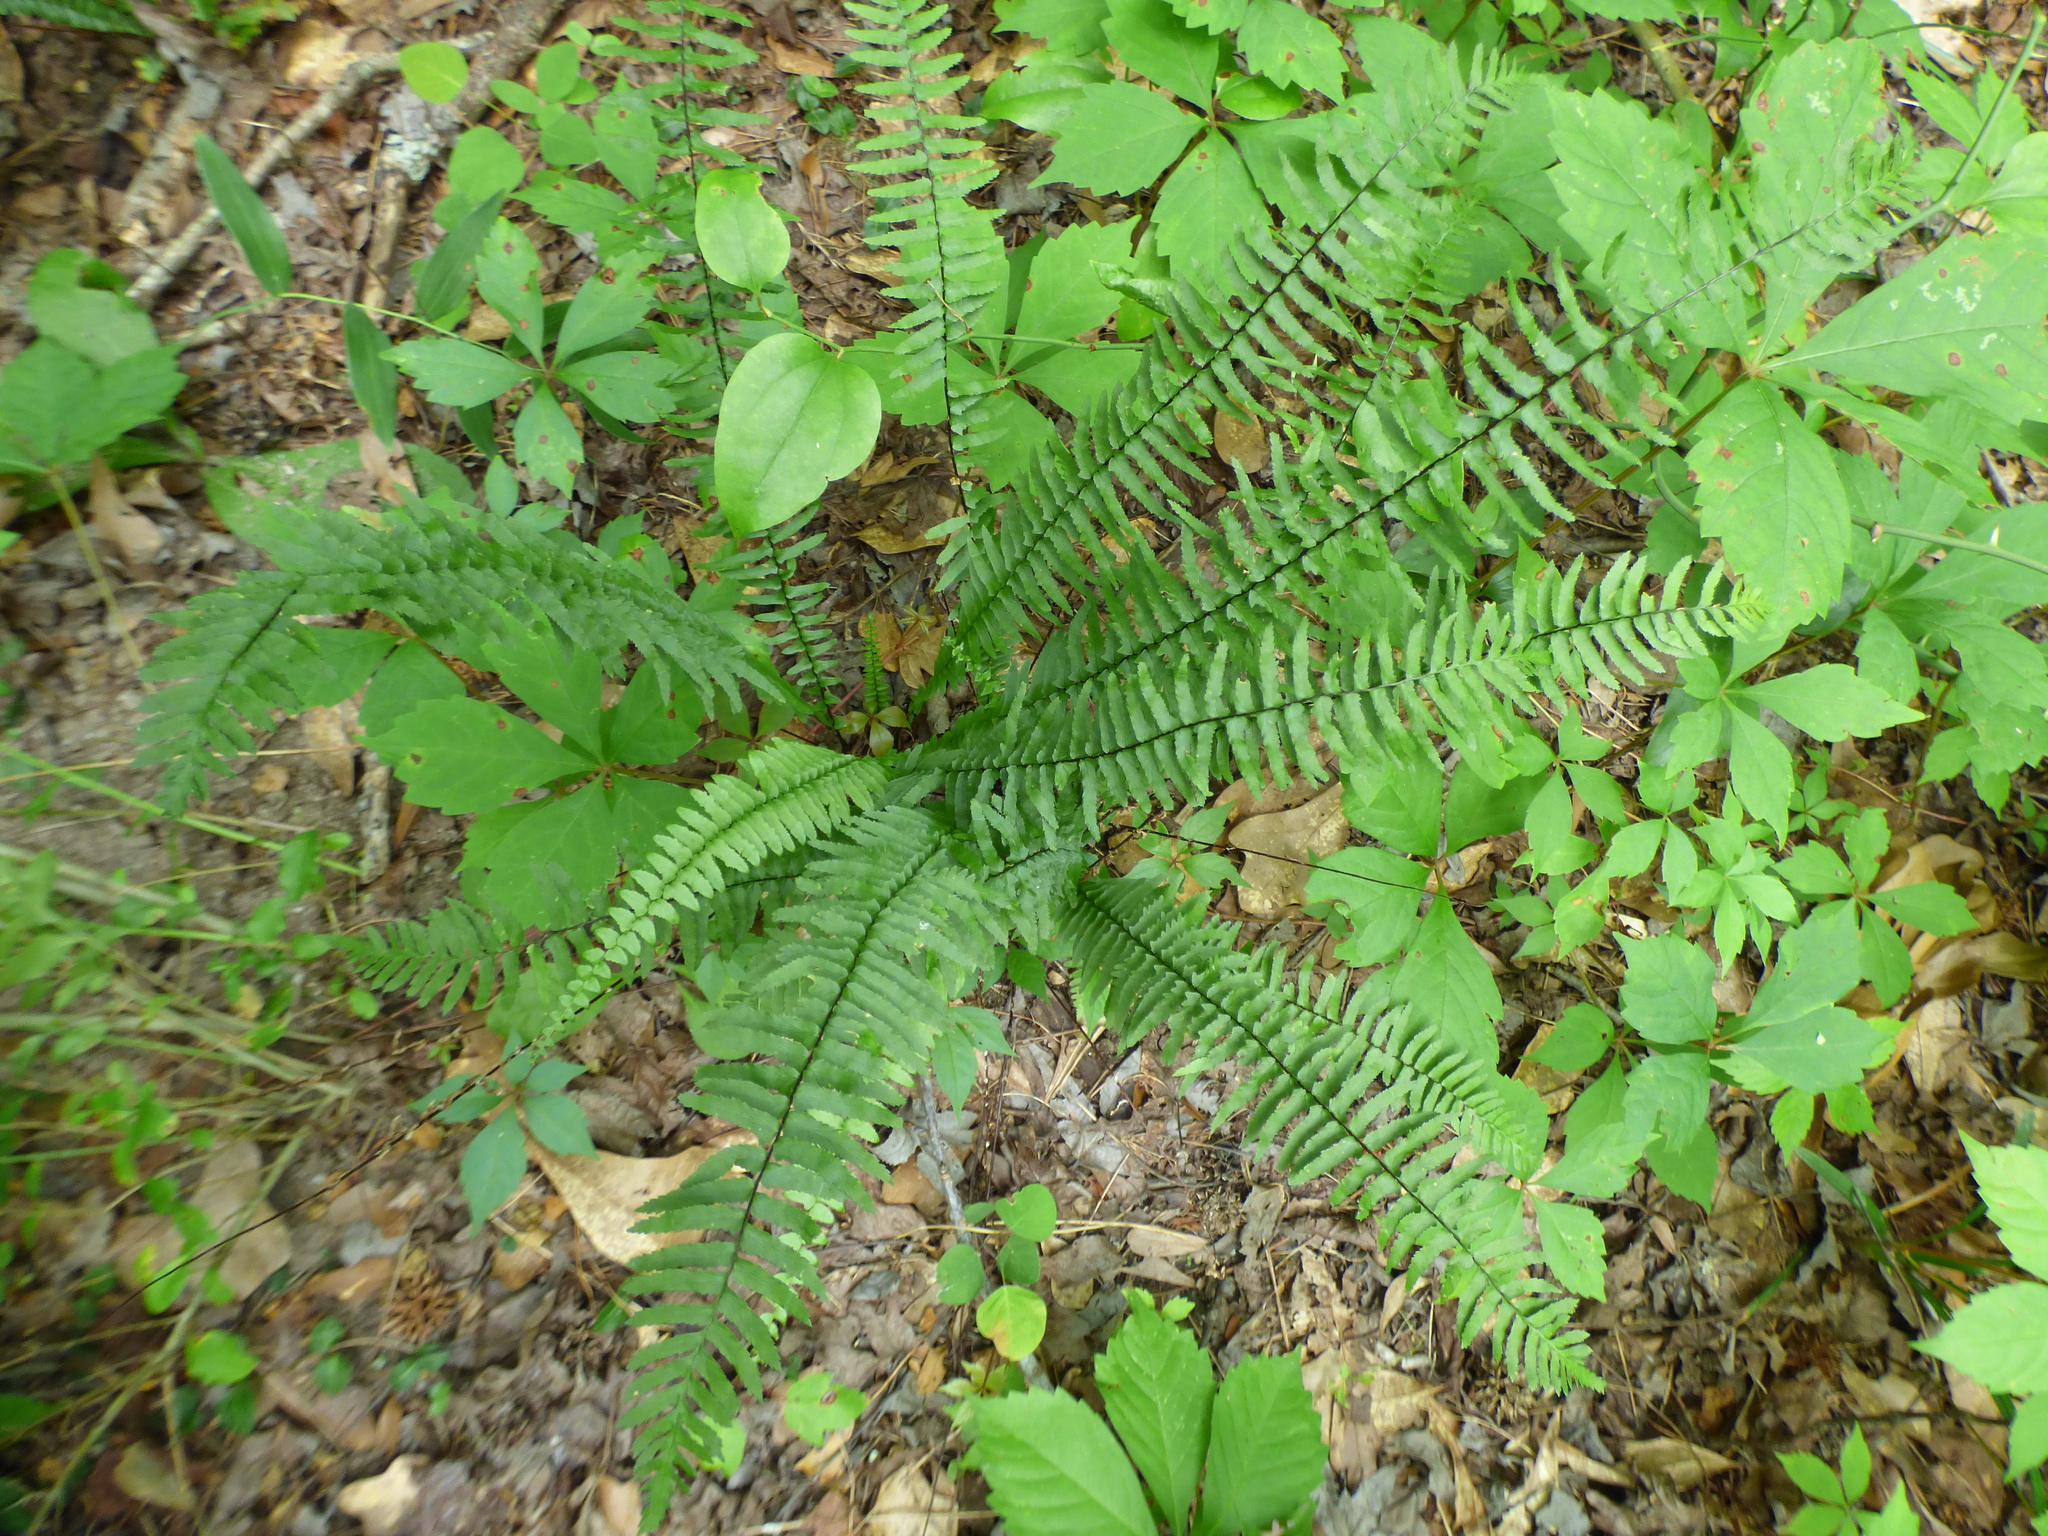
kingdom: Plantae
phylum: Tracheophyta
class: Polypodiopsida
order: Polypodiales
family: Aspleniaceae
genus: Asplenium
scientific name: Asplenium platyneuron
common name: Ebony spleenwort
